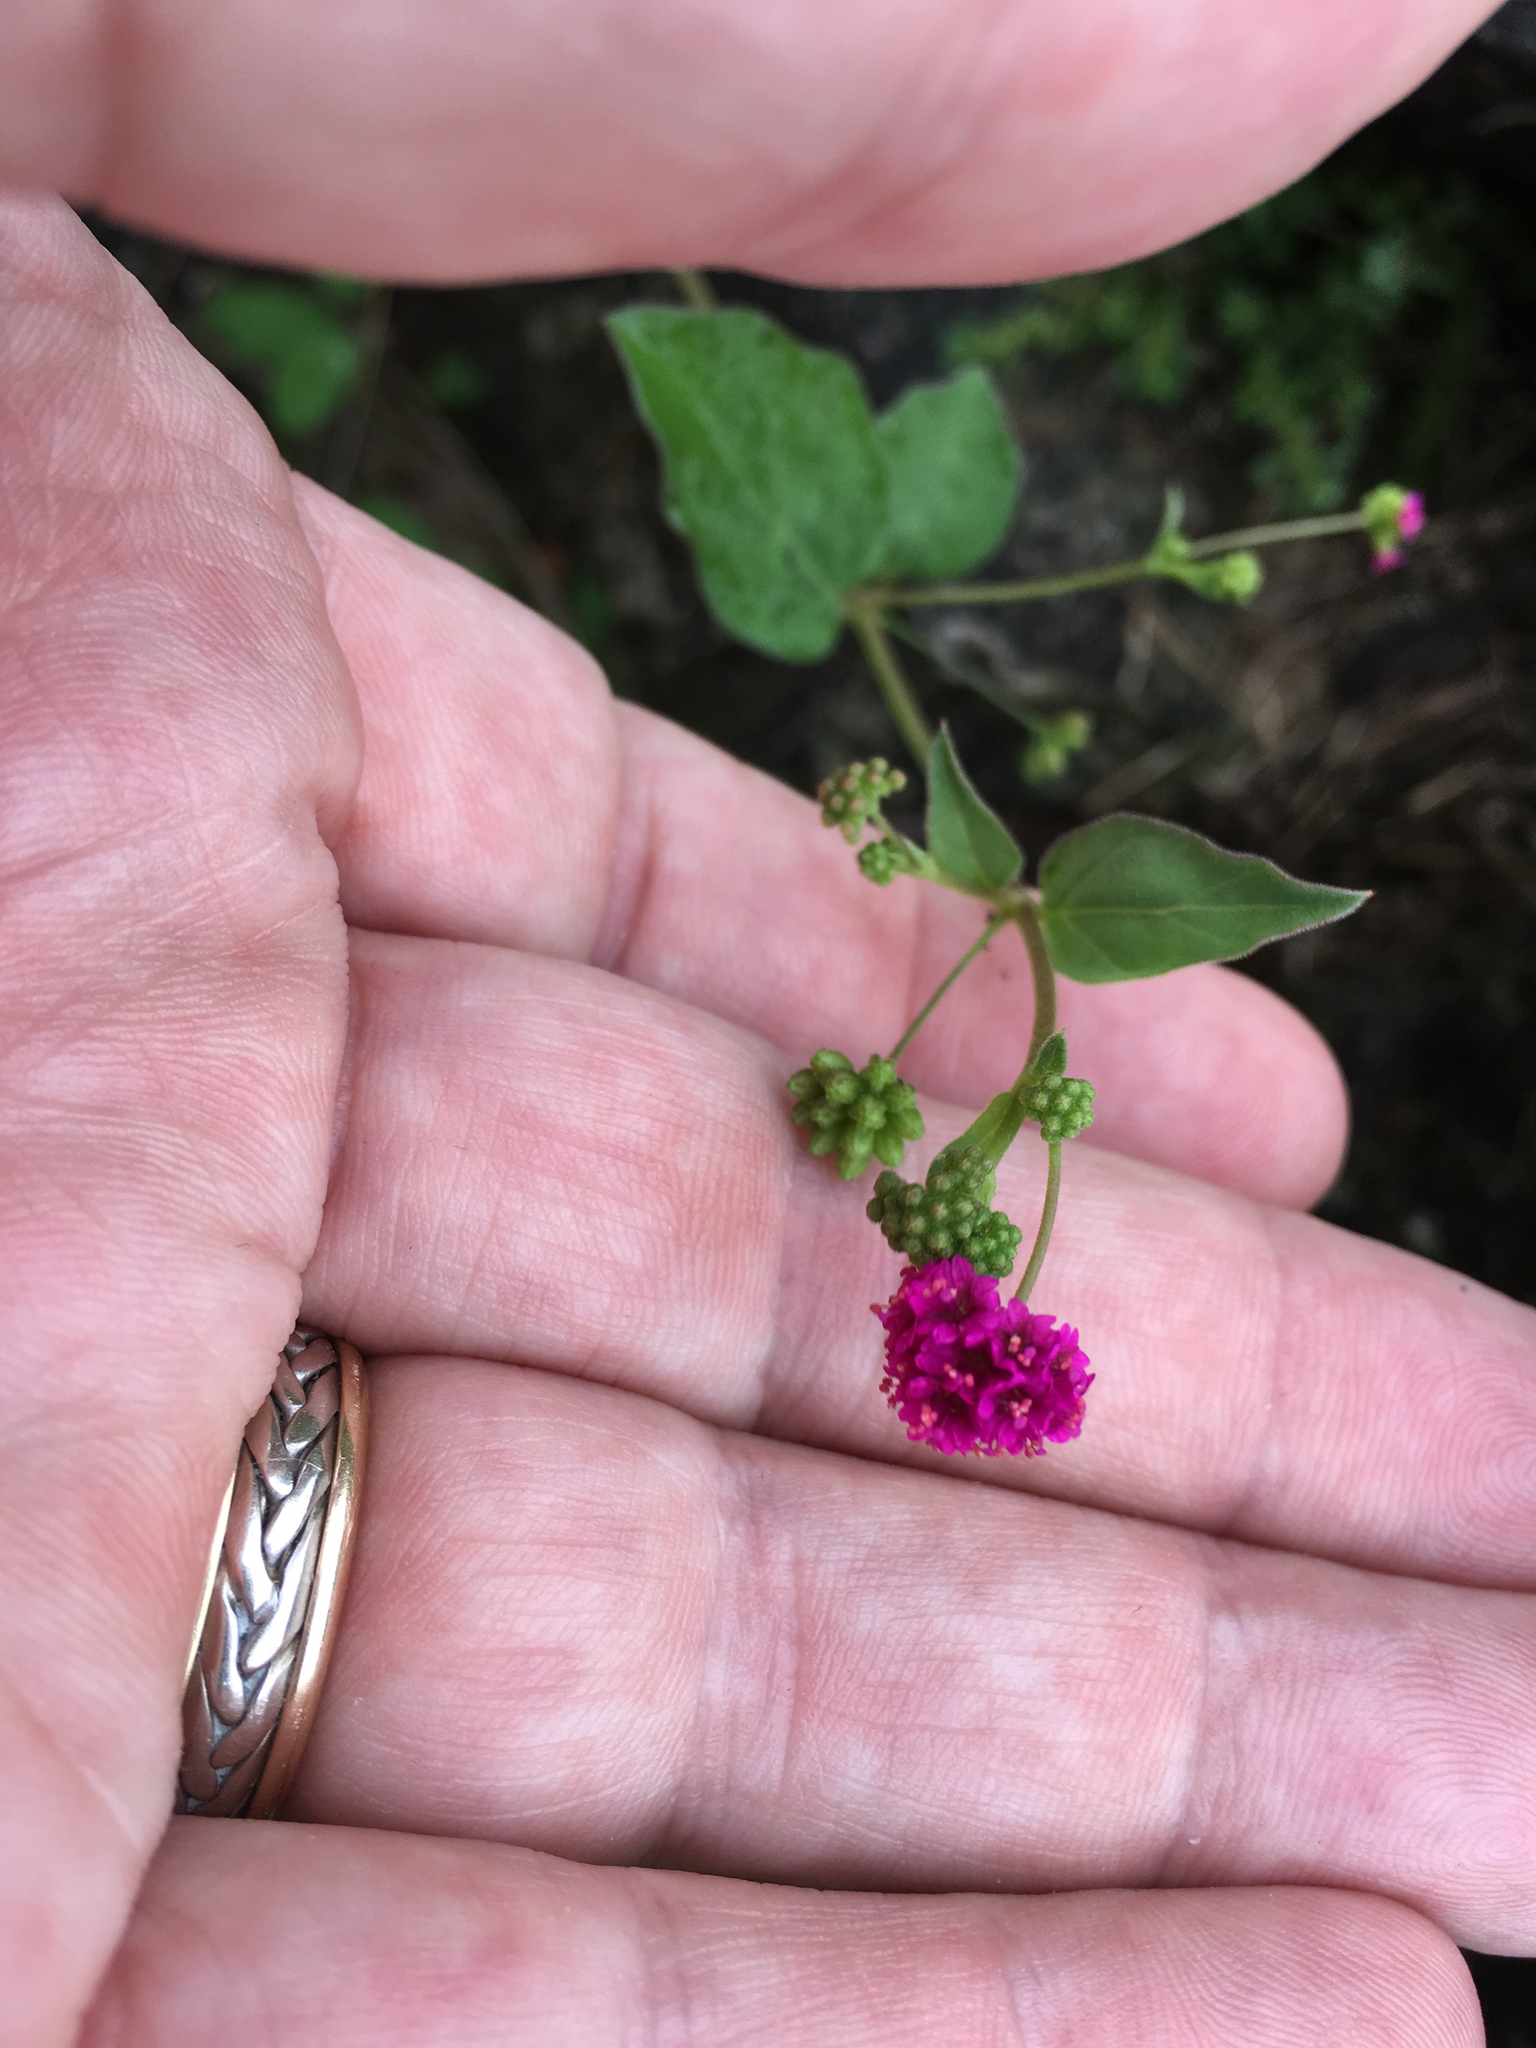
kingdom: Plantae
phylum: Tracheophyta
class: Magnoliopsida
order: Caryophyllales
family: Nyctaginaceae
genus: Boerhavia
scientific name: Boerhavia coccinea
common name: Scarlet spiderling
